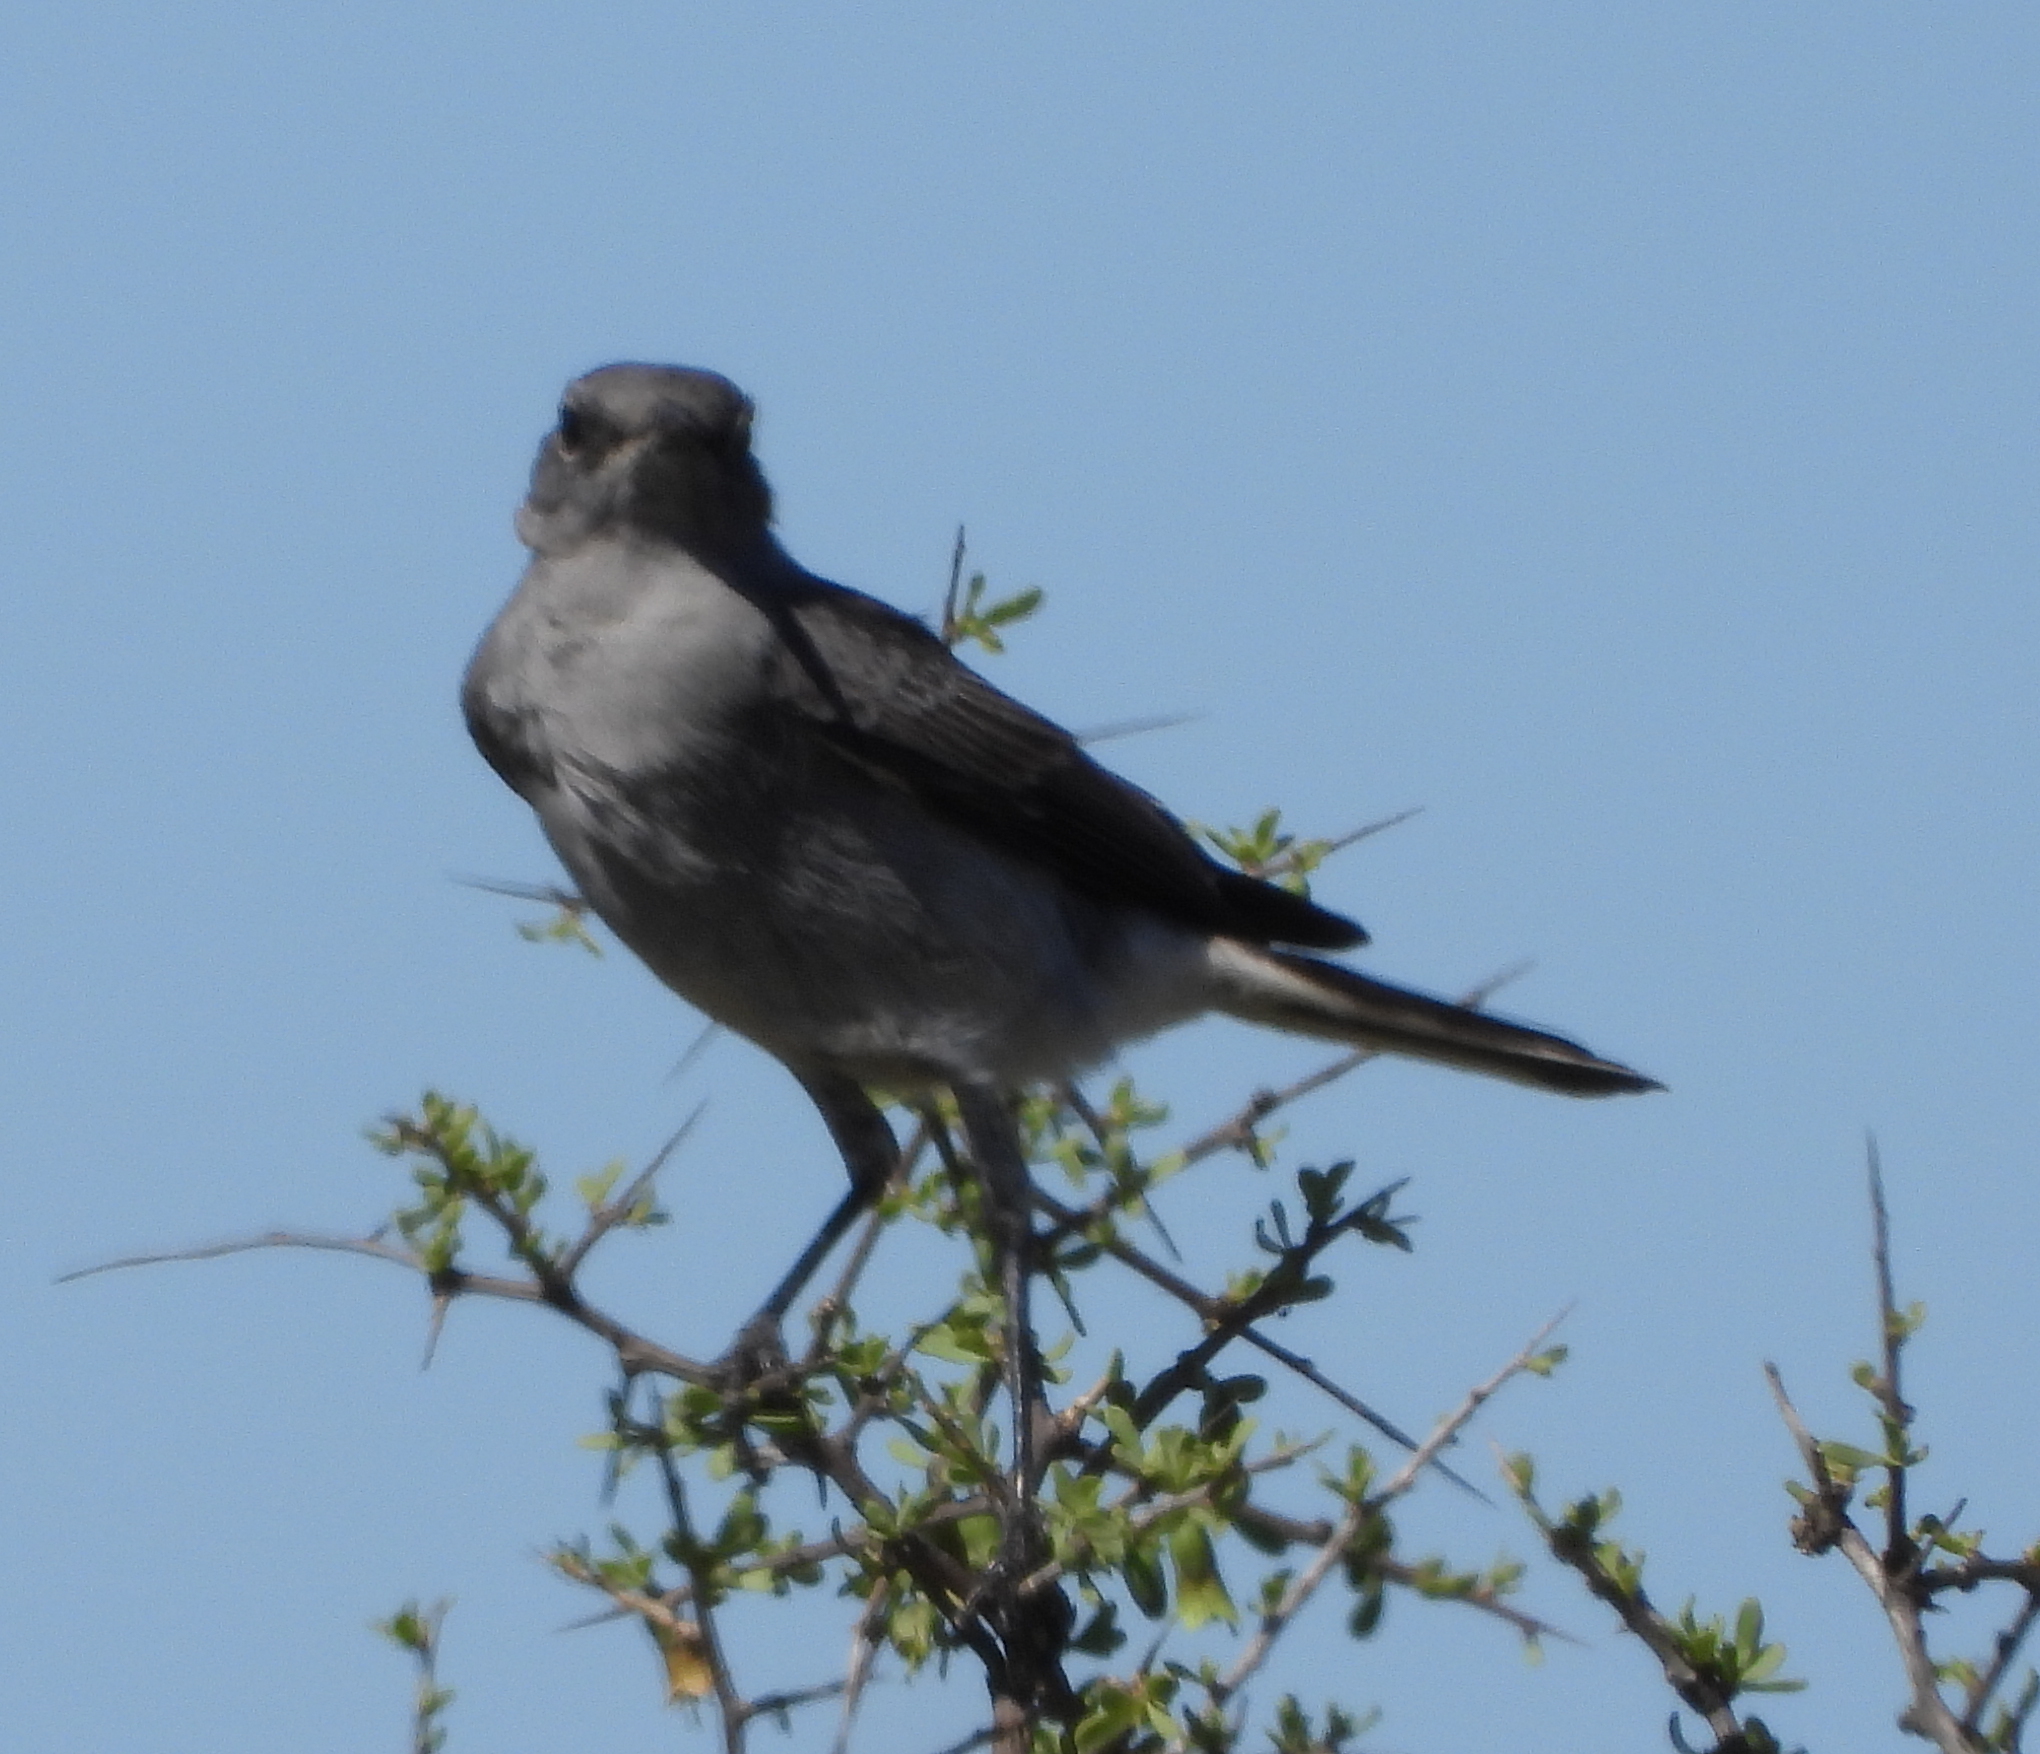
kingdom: Animalia
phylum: Chordata
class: Aves
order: Passeriformes
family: Muscicapidae
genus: Emarginata
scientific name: Emarginata schlegelii
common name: Karoo chat
